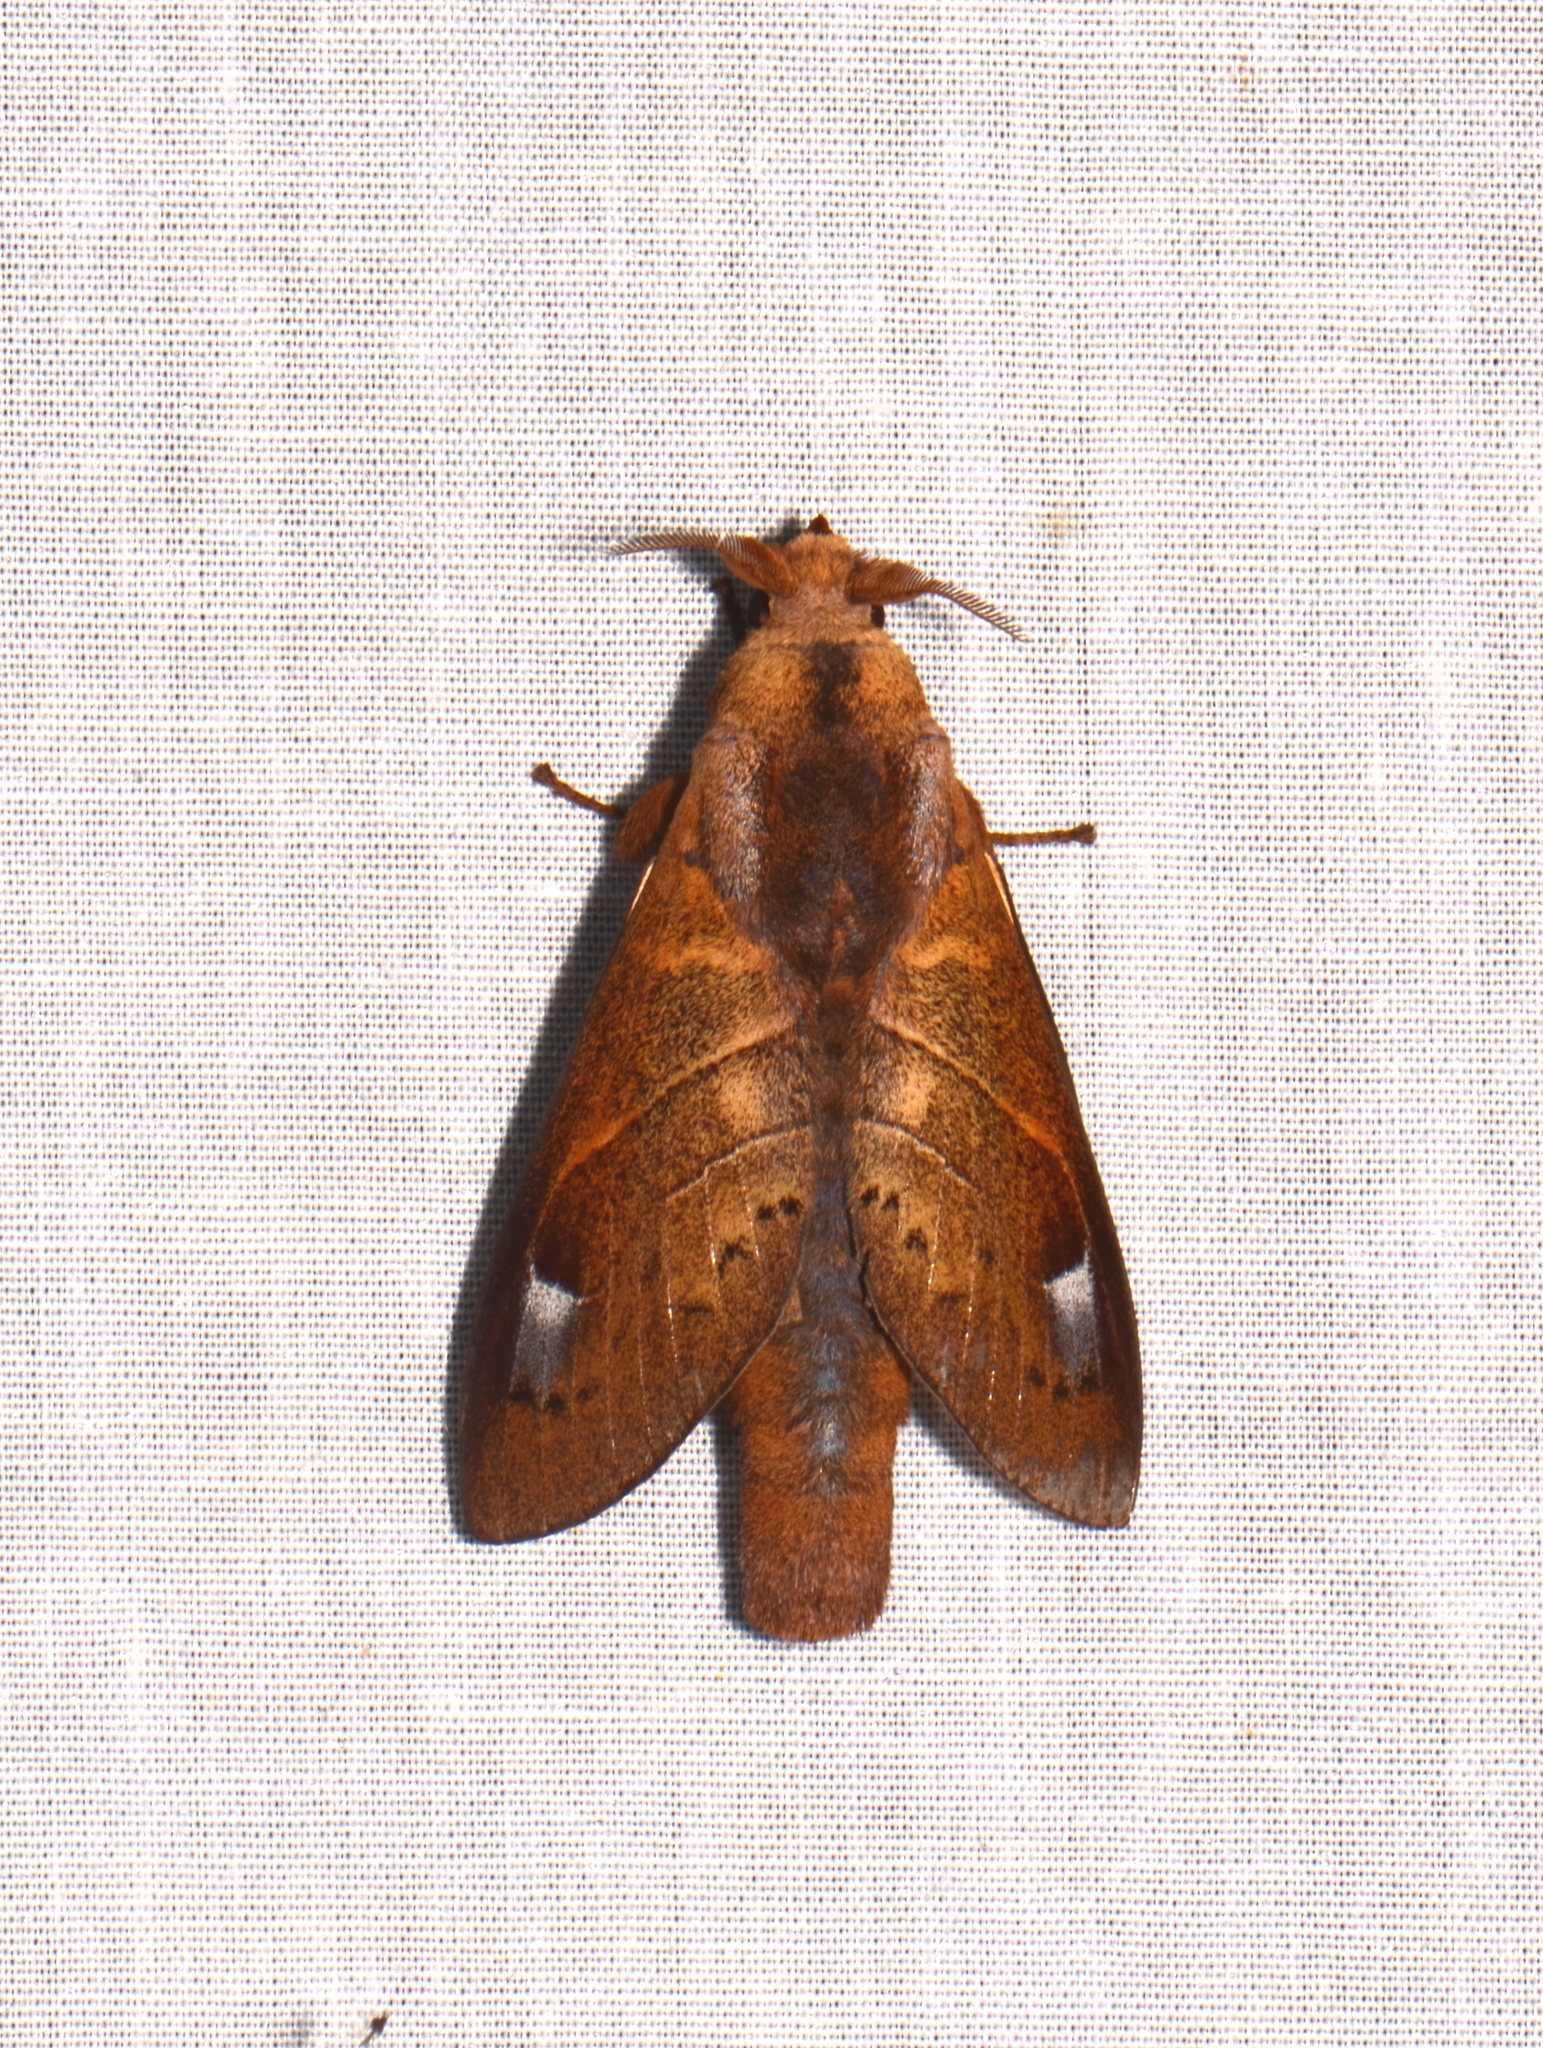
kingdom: Animalia
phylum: Arthropoda
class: Insecta
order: Lepidoptera
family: Lasiocampidae
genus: Paralebeda
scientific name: Paralebeda crinodes
